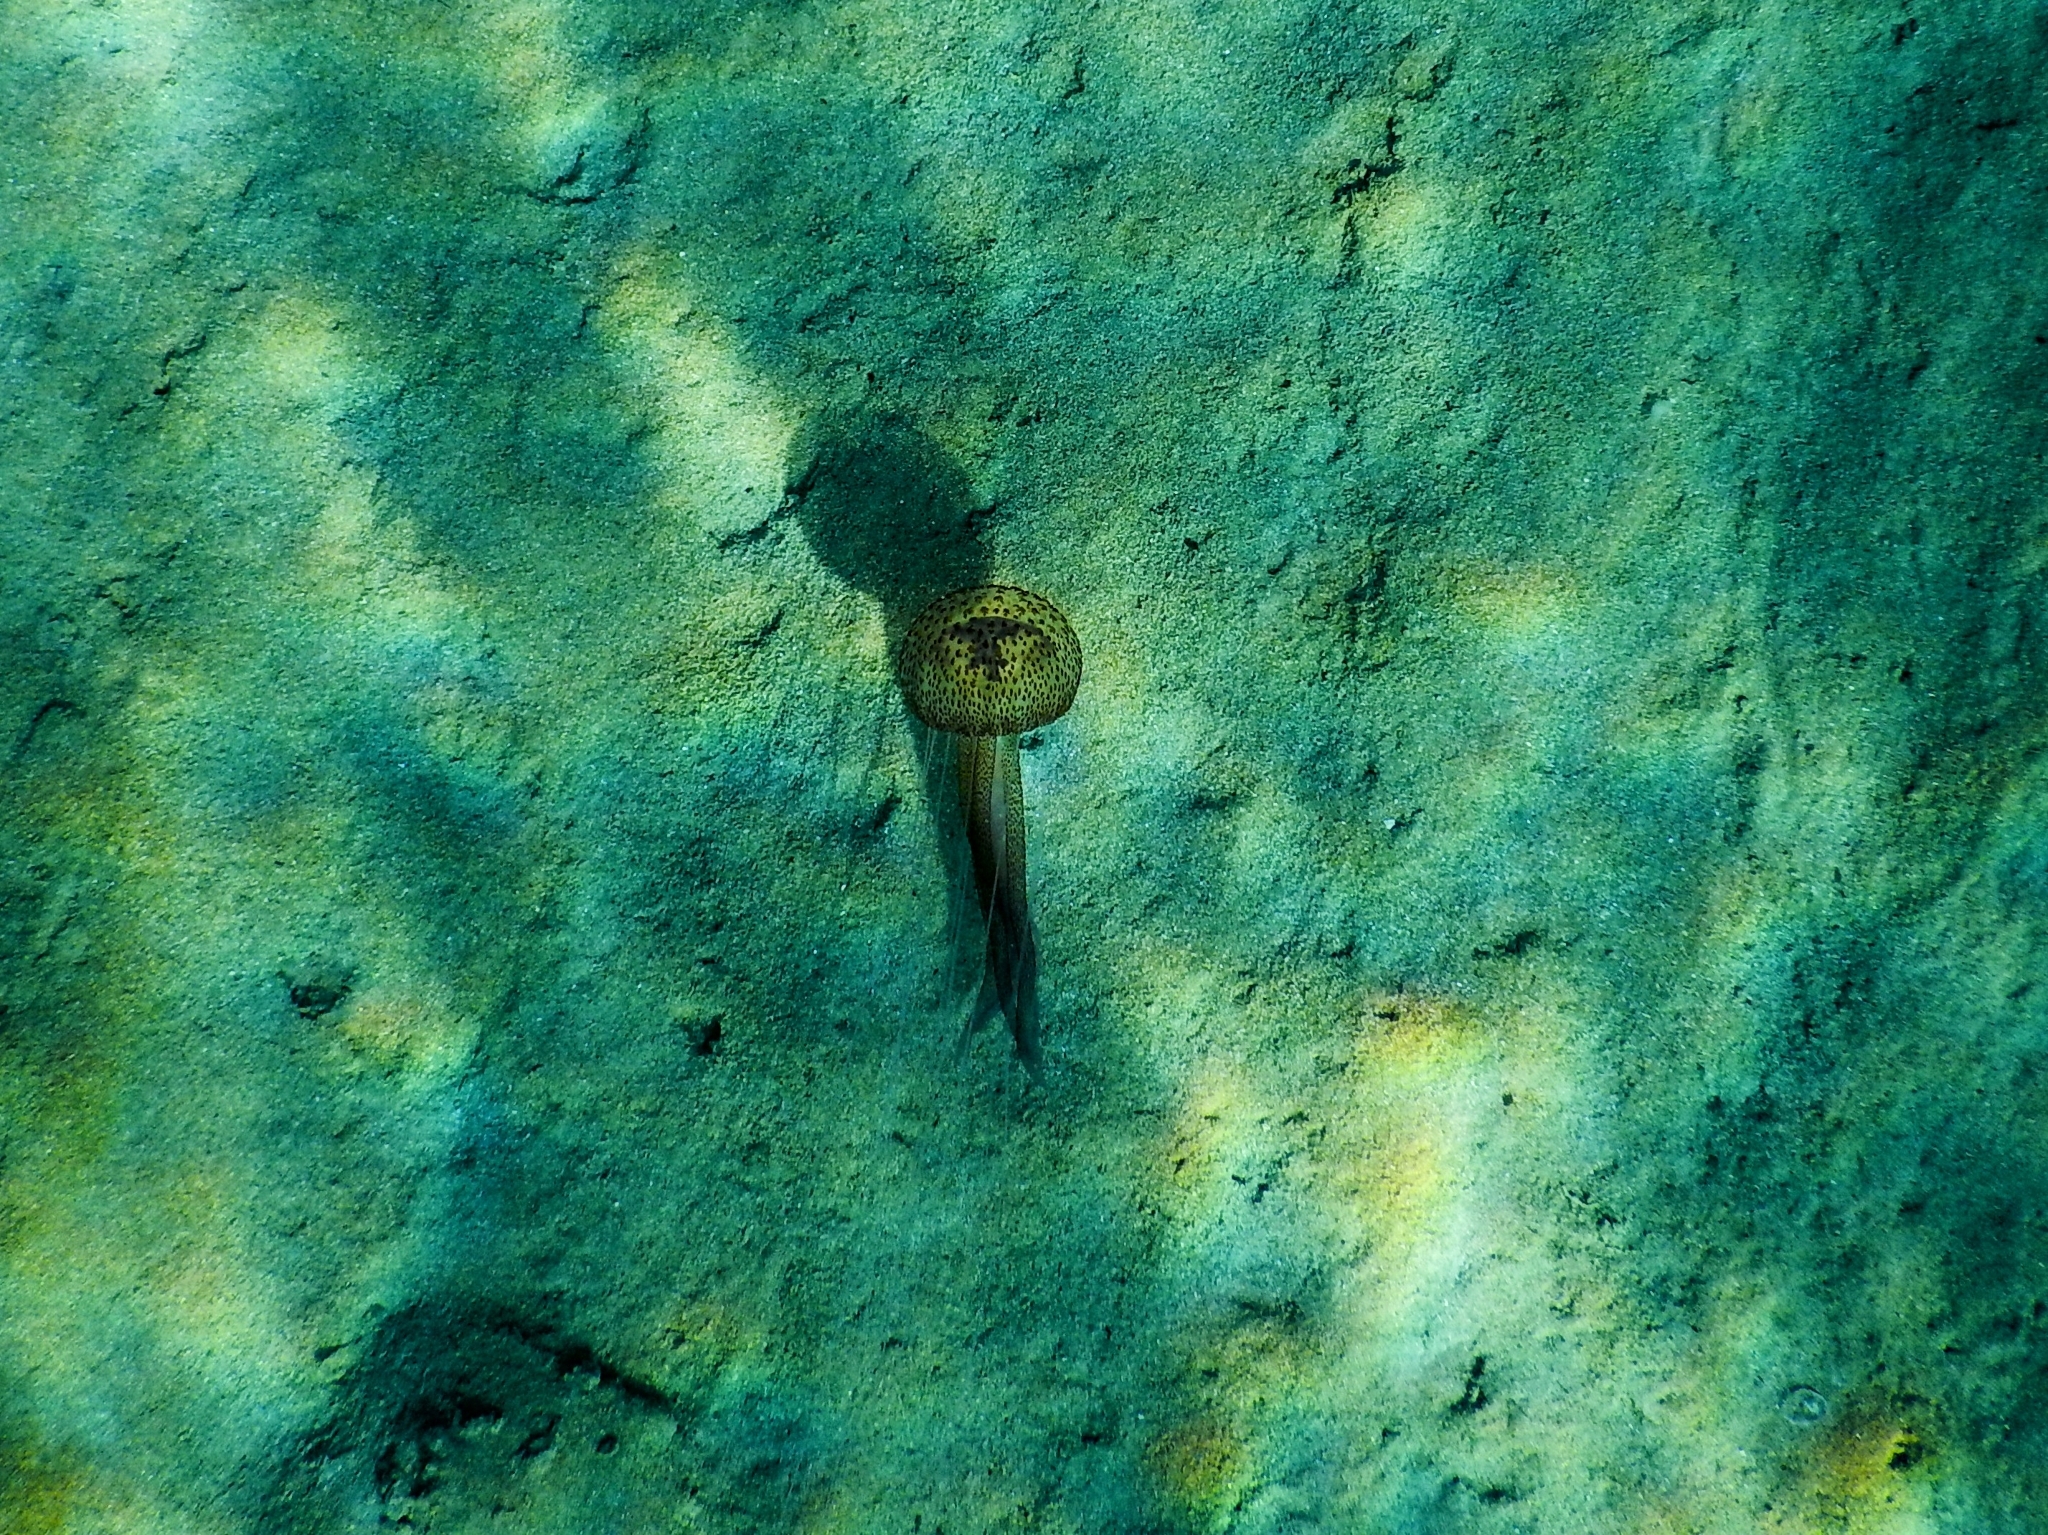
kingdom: Animalia
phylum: Cnidaria
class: Scyphozoa
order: Semaeostomeae
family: Pelagiidae
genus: Pelagia
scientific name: Pelagia noctiluca
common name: Mauve stinger
